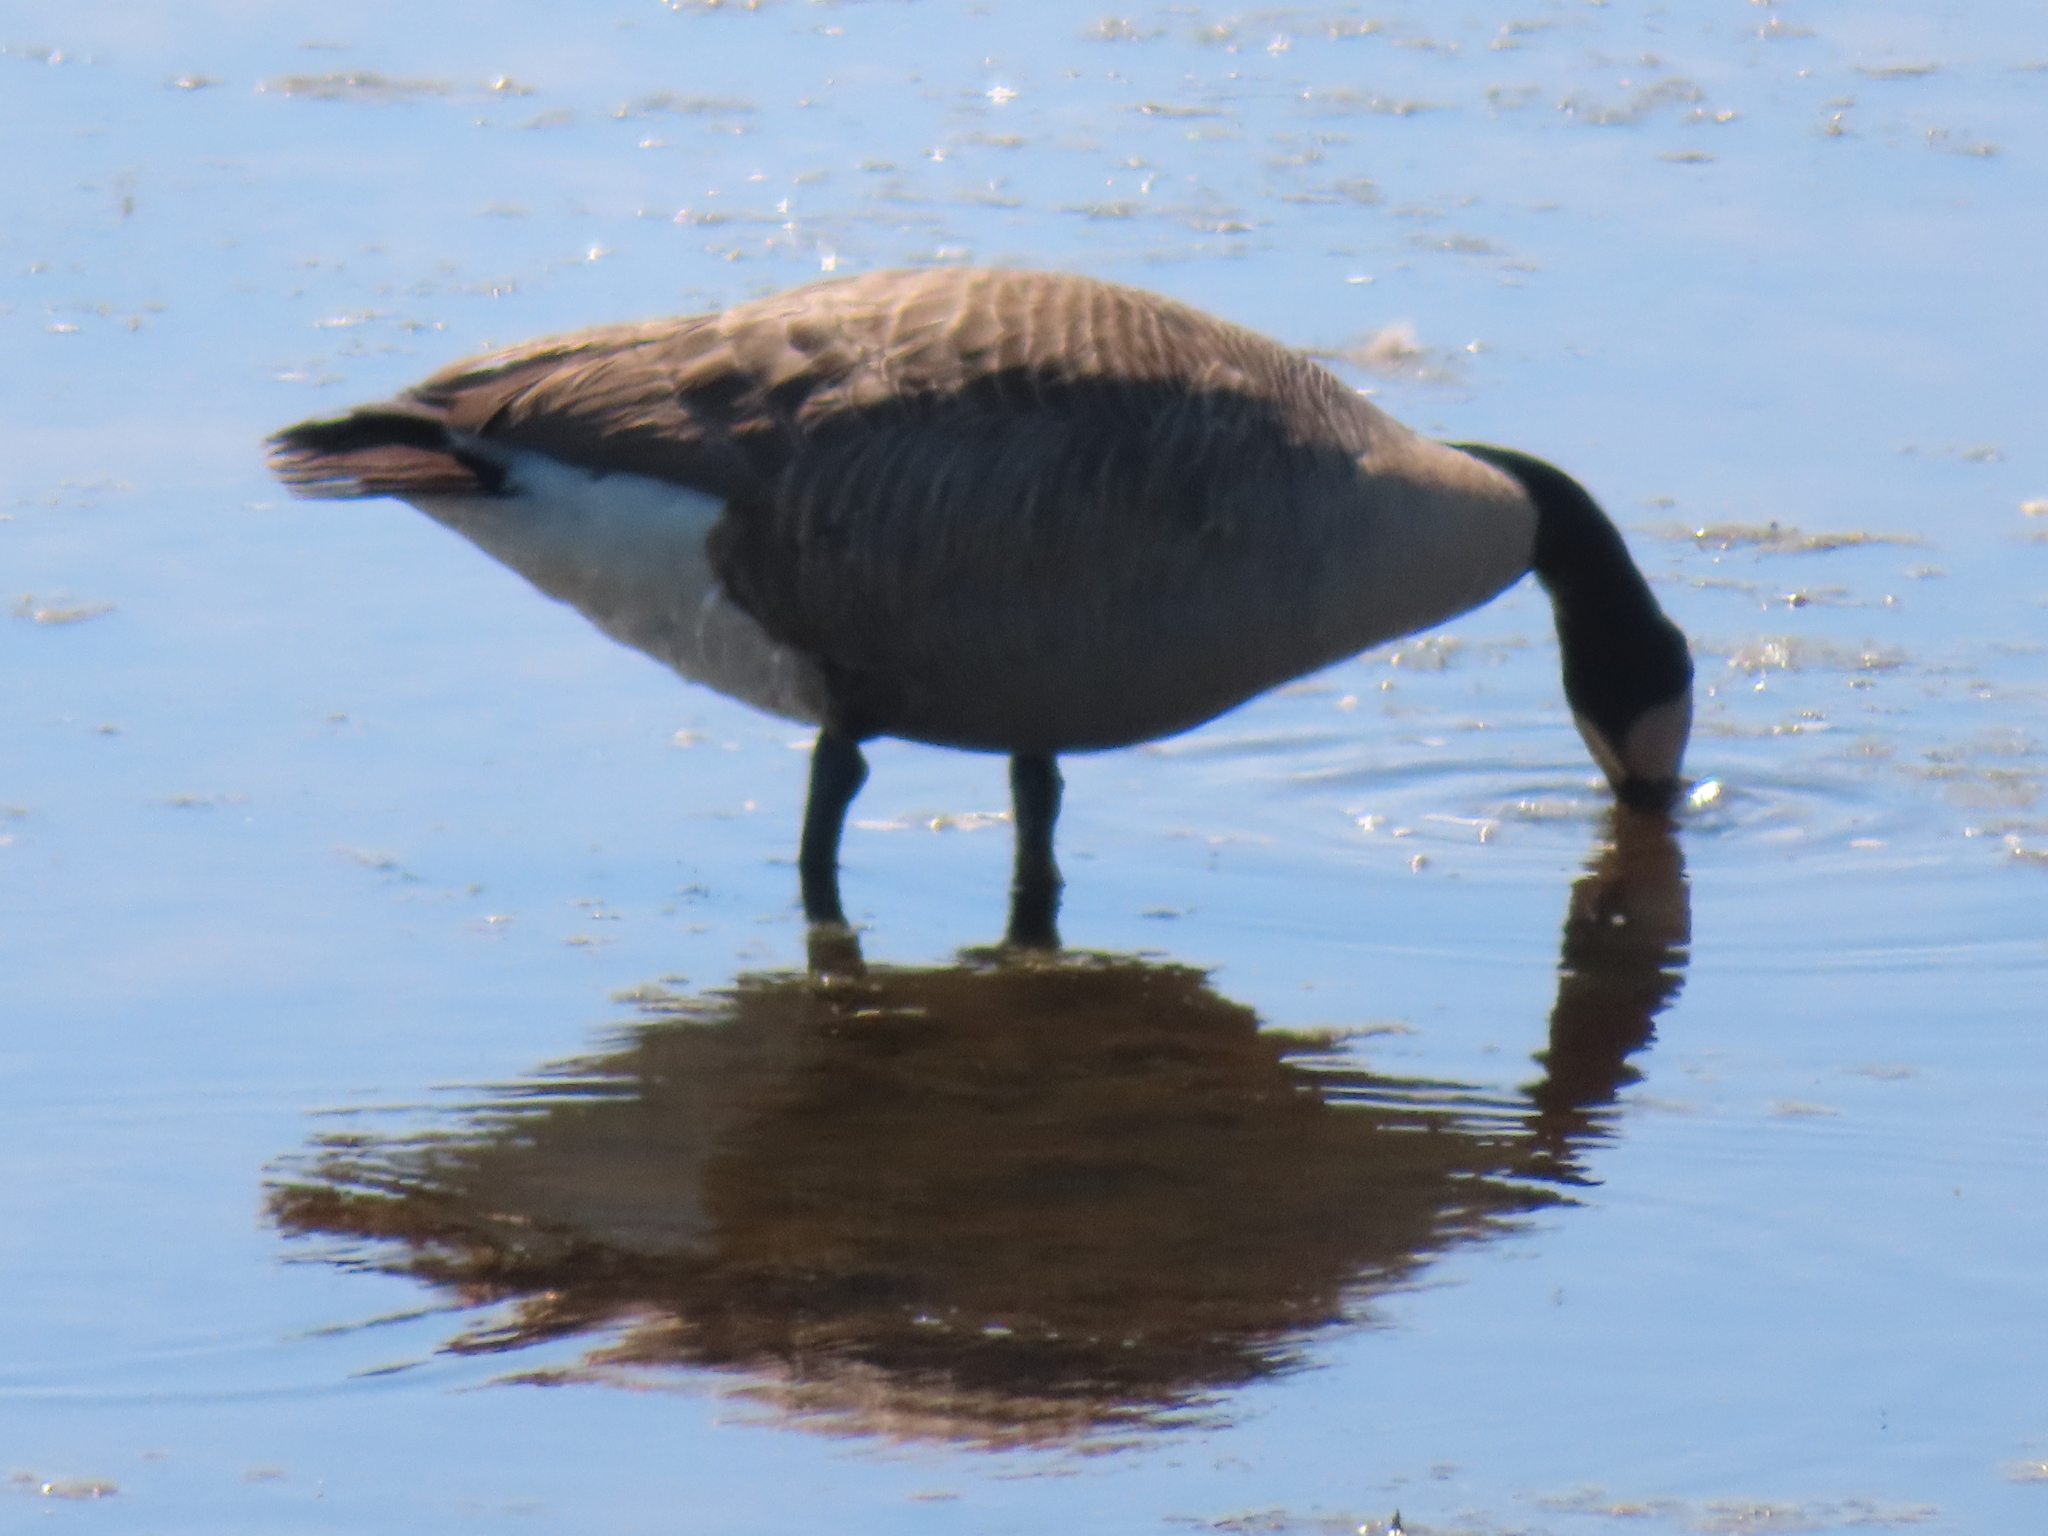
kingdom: Animalia
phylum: Chordata
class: Aves
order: Anseriformes
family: Anatidae
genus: Branta
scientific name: Branta canadensis
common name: Canada goose
